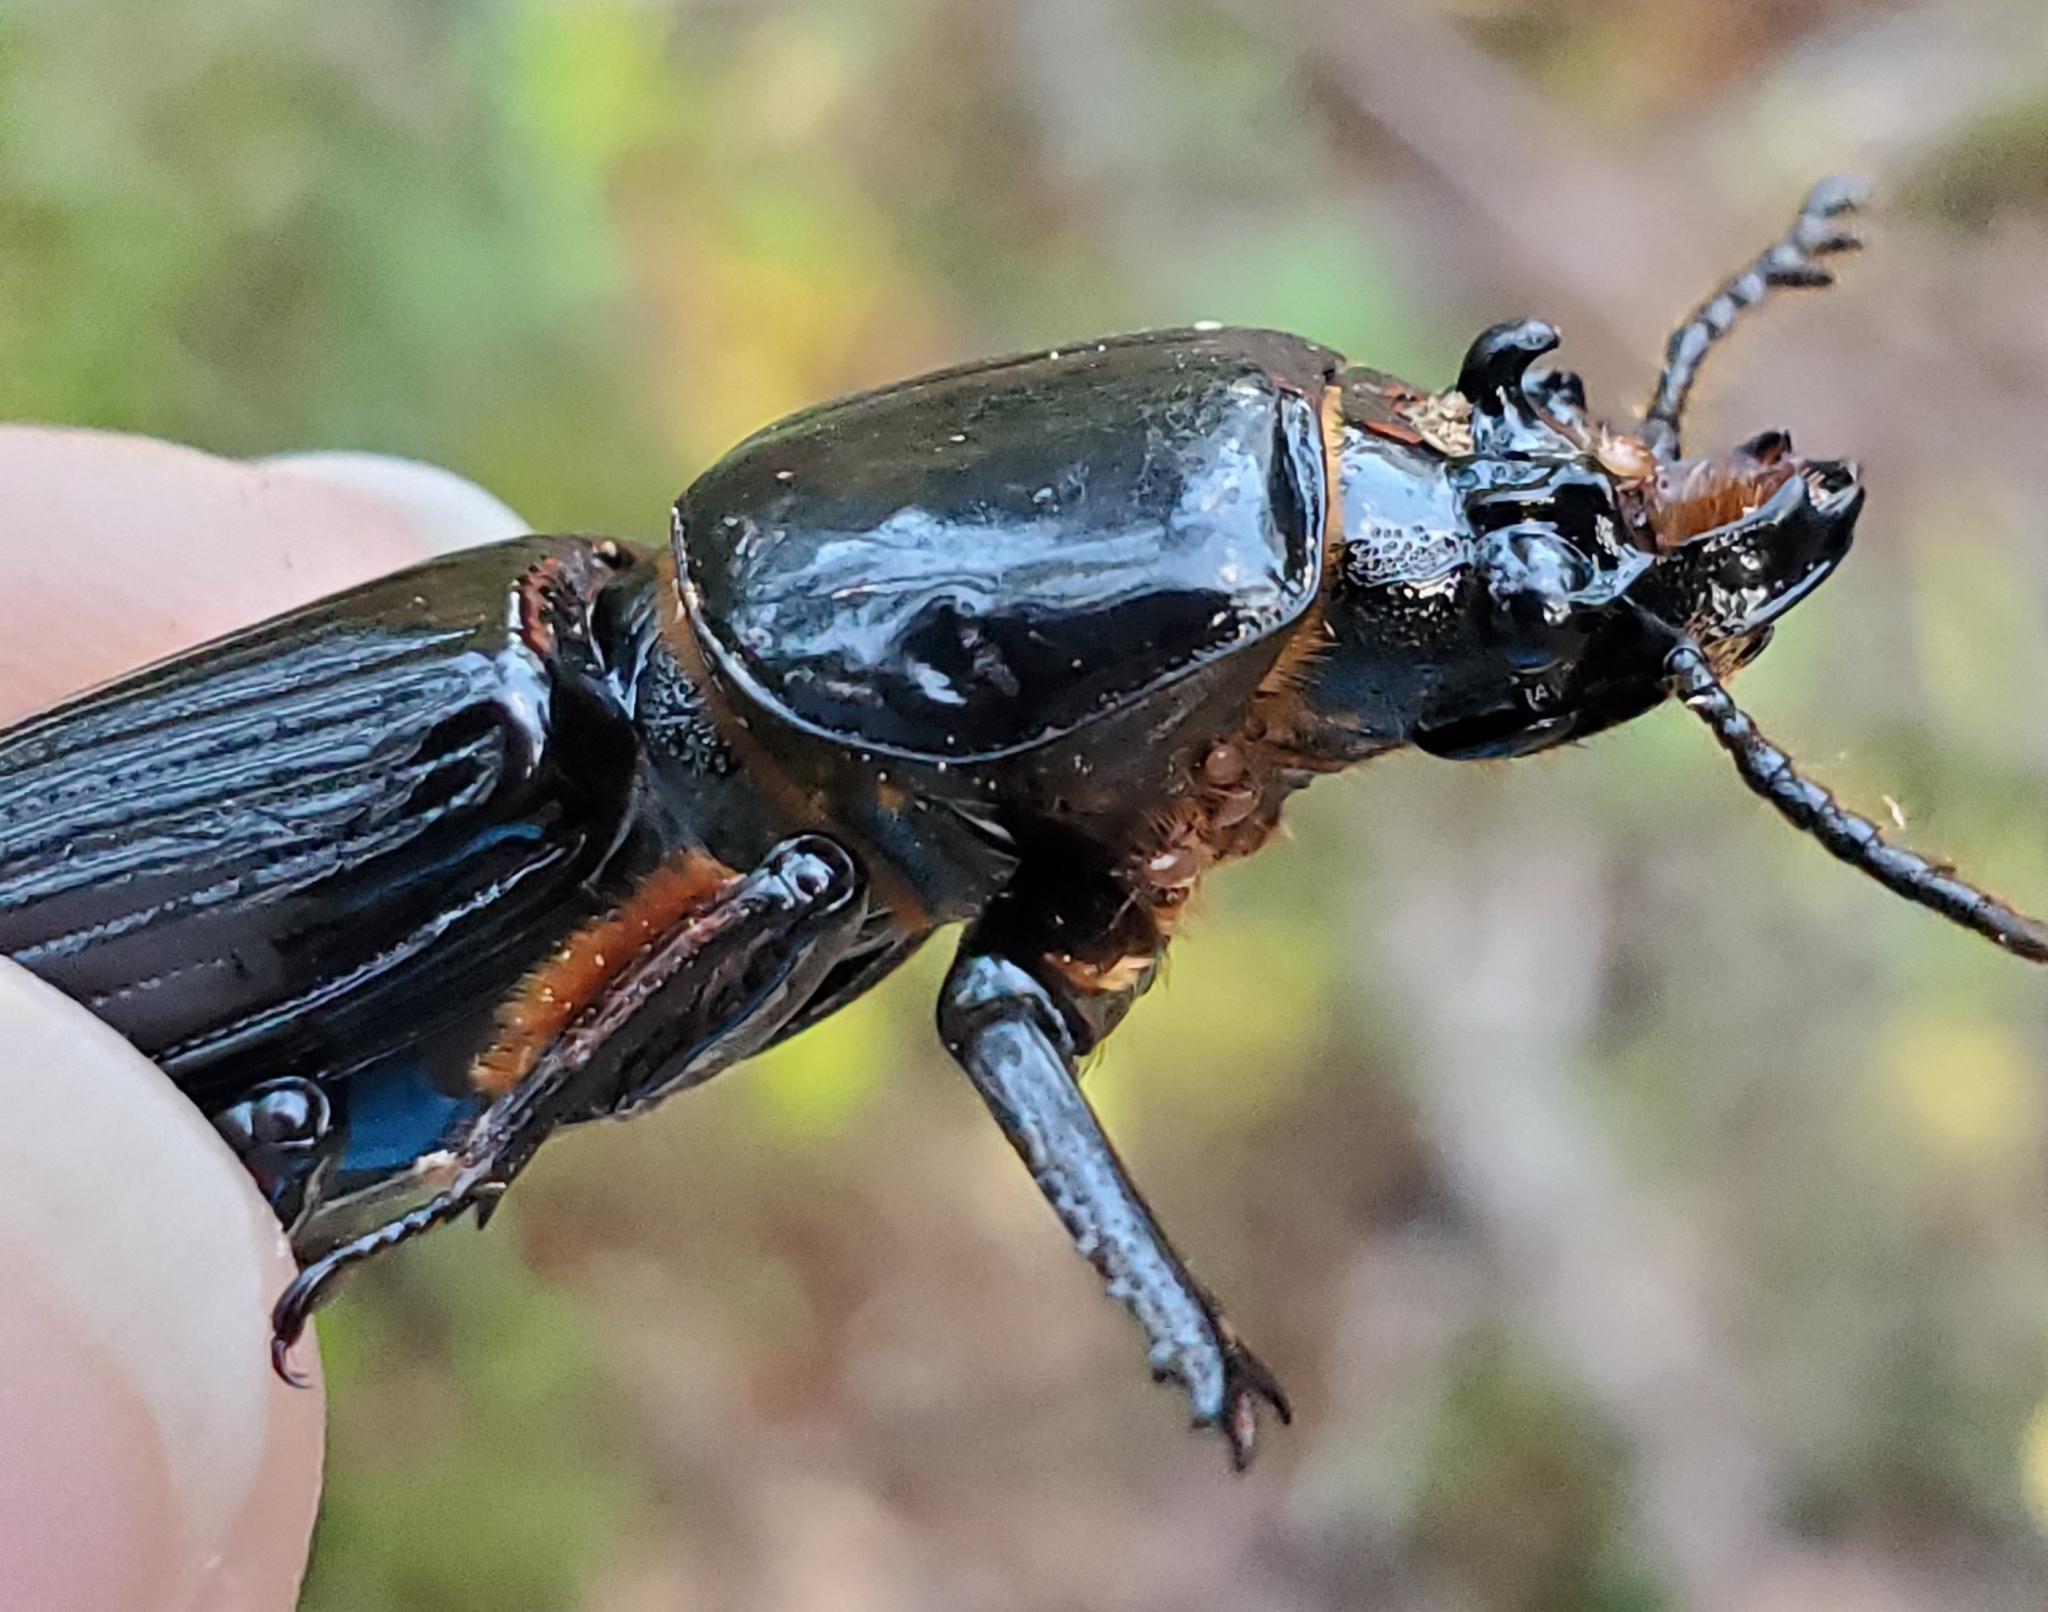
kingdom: Animalia
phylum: Arthropoda
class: Arachnida
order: Mesostigmata
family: Megisthanidae
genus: Megisthanus
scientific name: Megisthanus
